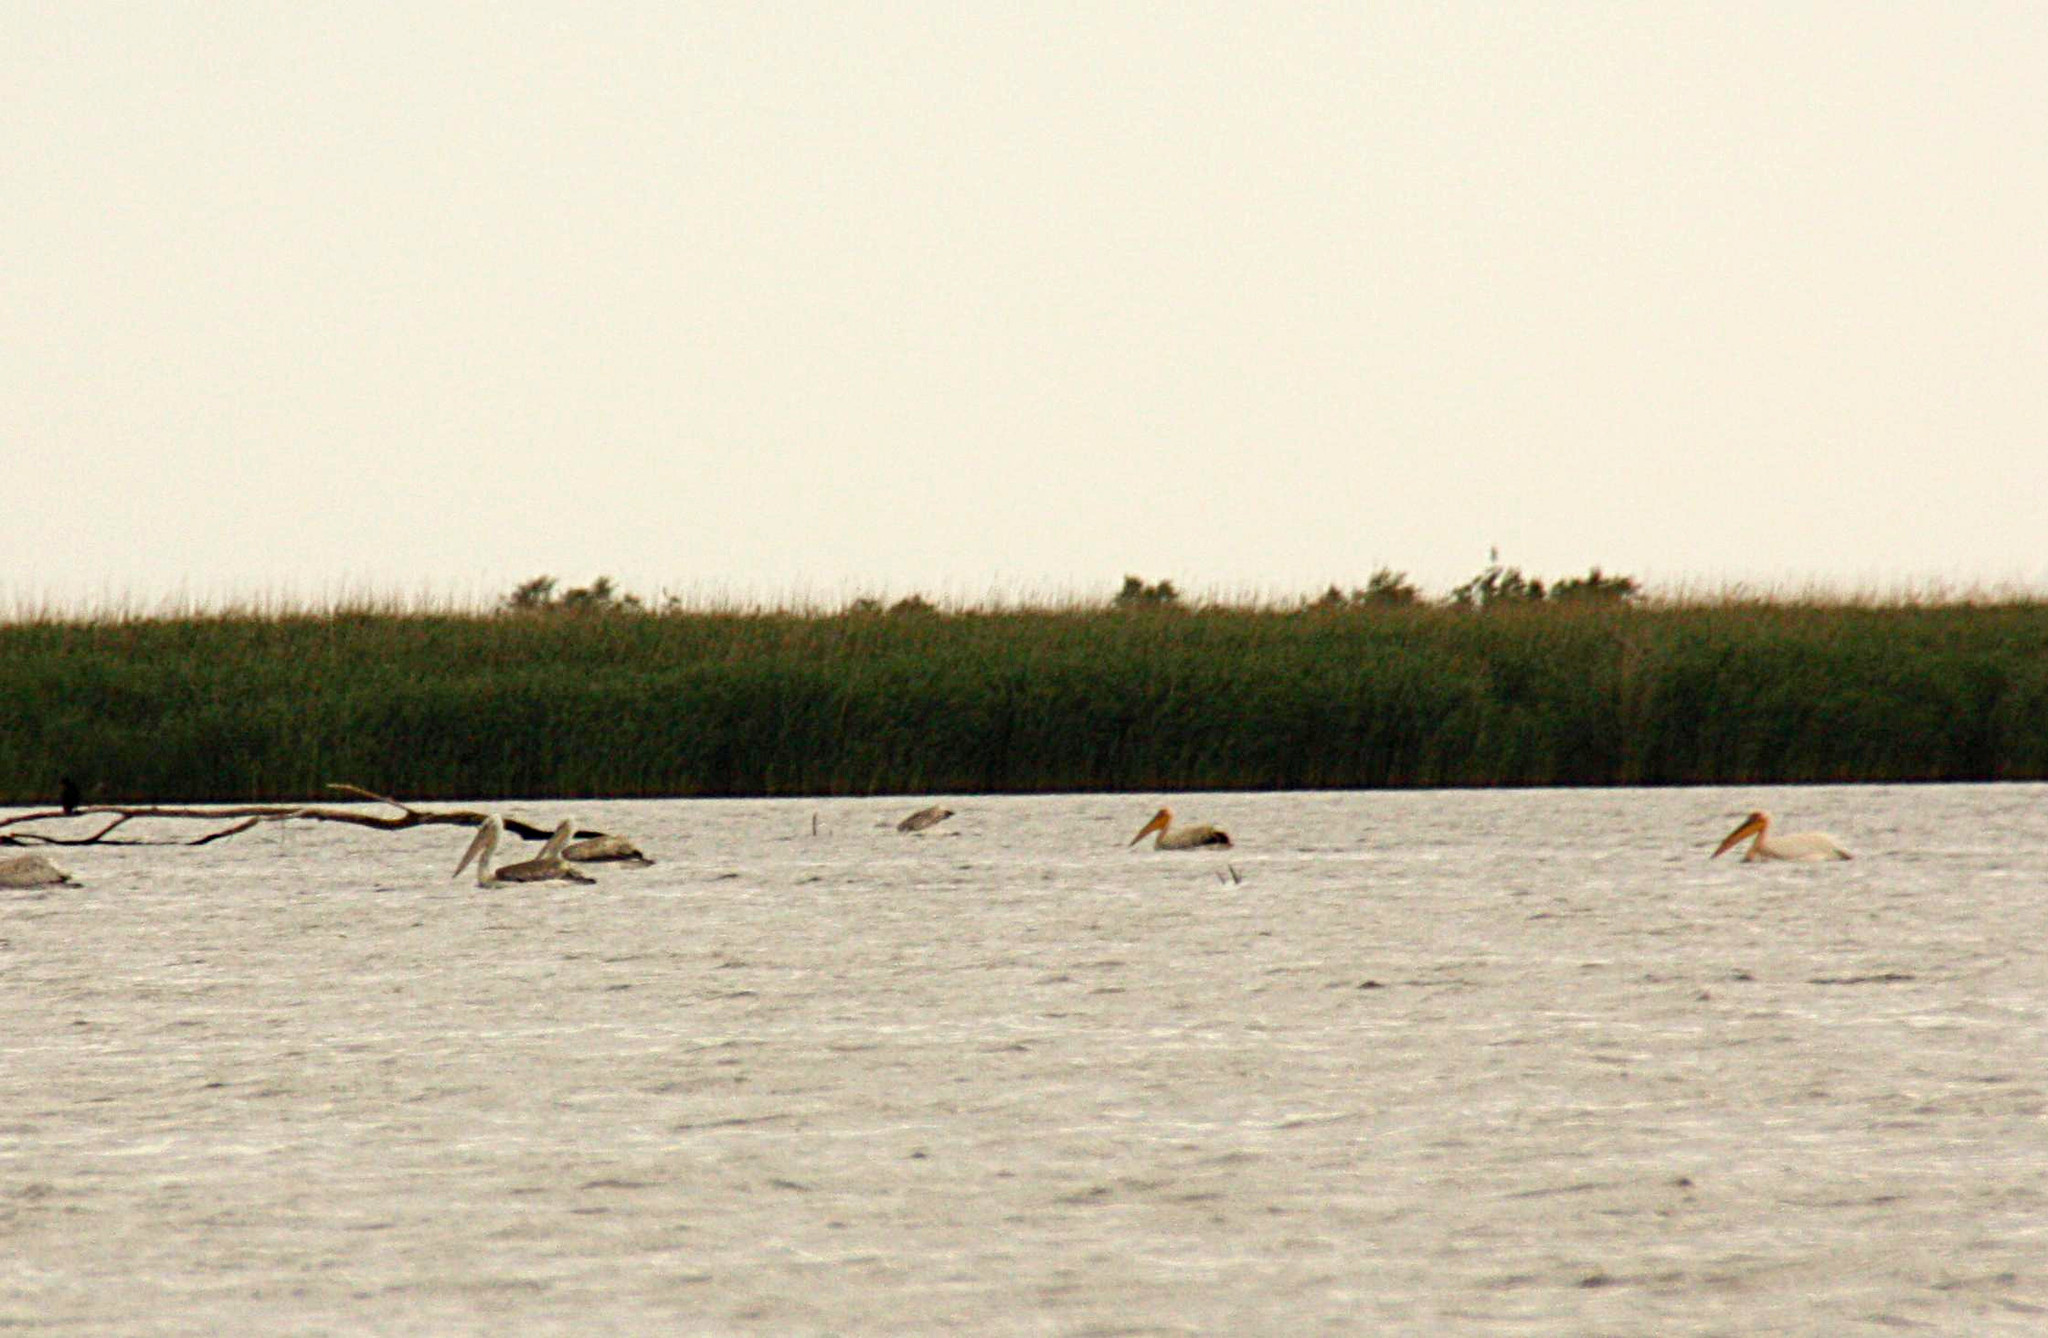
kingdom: Animalia
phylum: Chordata
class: Aves
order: Pelecaniformes
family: Pelecanidae
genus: Pelecanus
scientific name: Pelecanus crispus
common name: Dalmatian pelican
